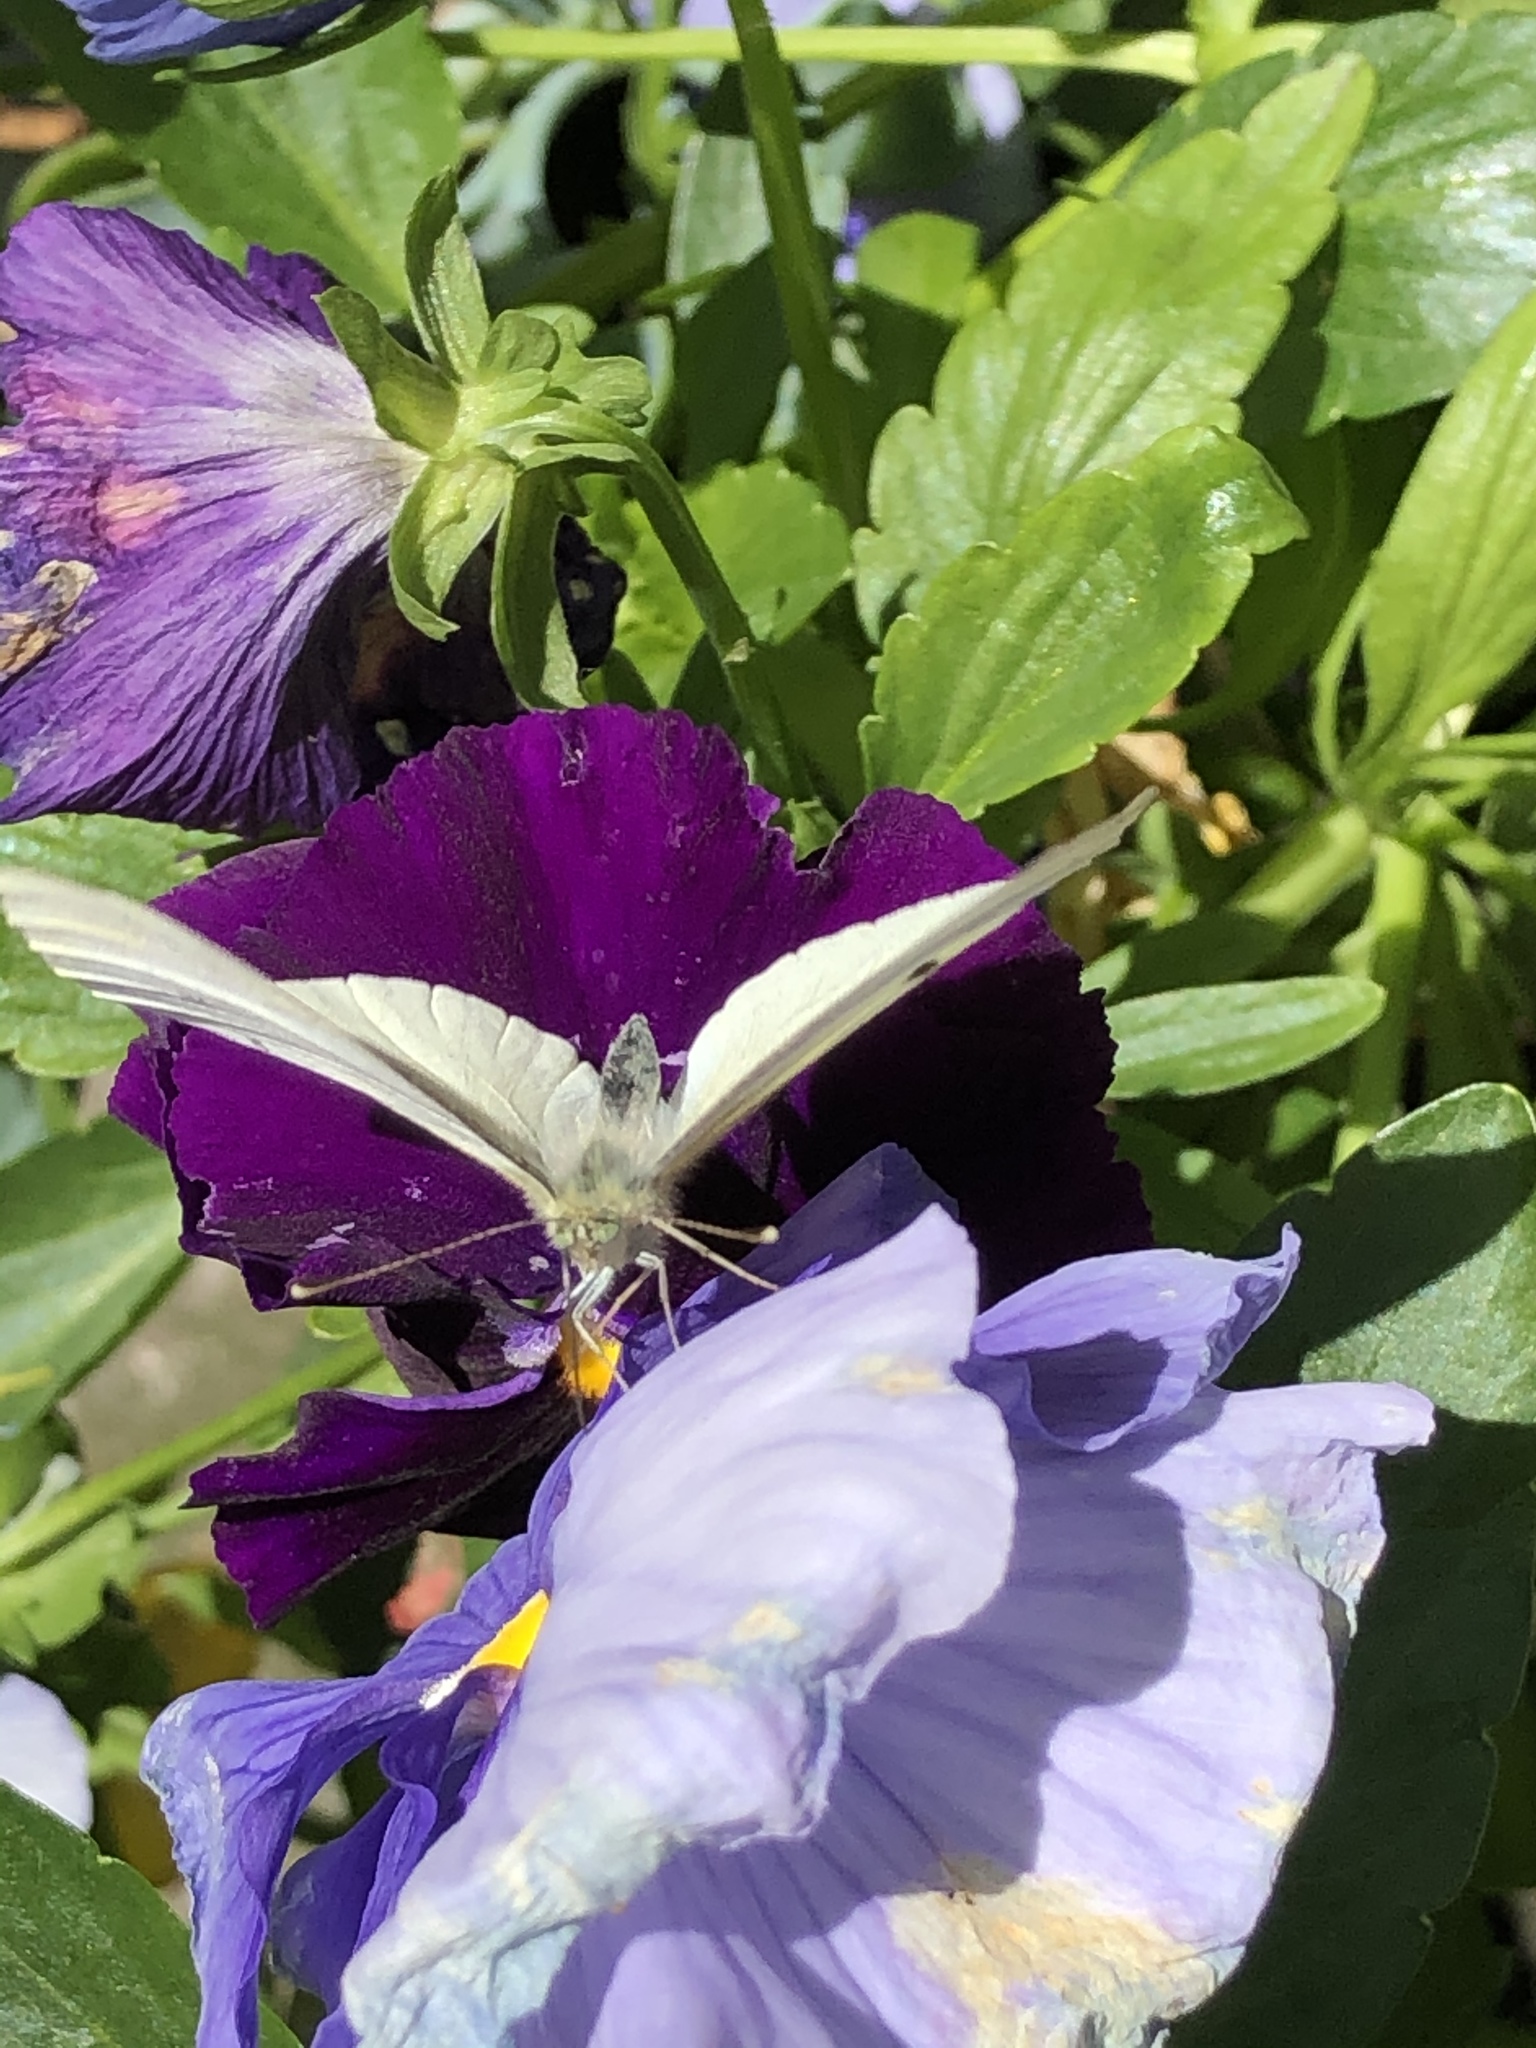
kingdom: Animalia
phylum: Arthropoda
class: Insecta
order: Lepidoptera
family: Pieridae
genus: Pieris
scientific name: Pieris rapae
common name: Small white
